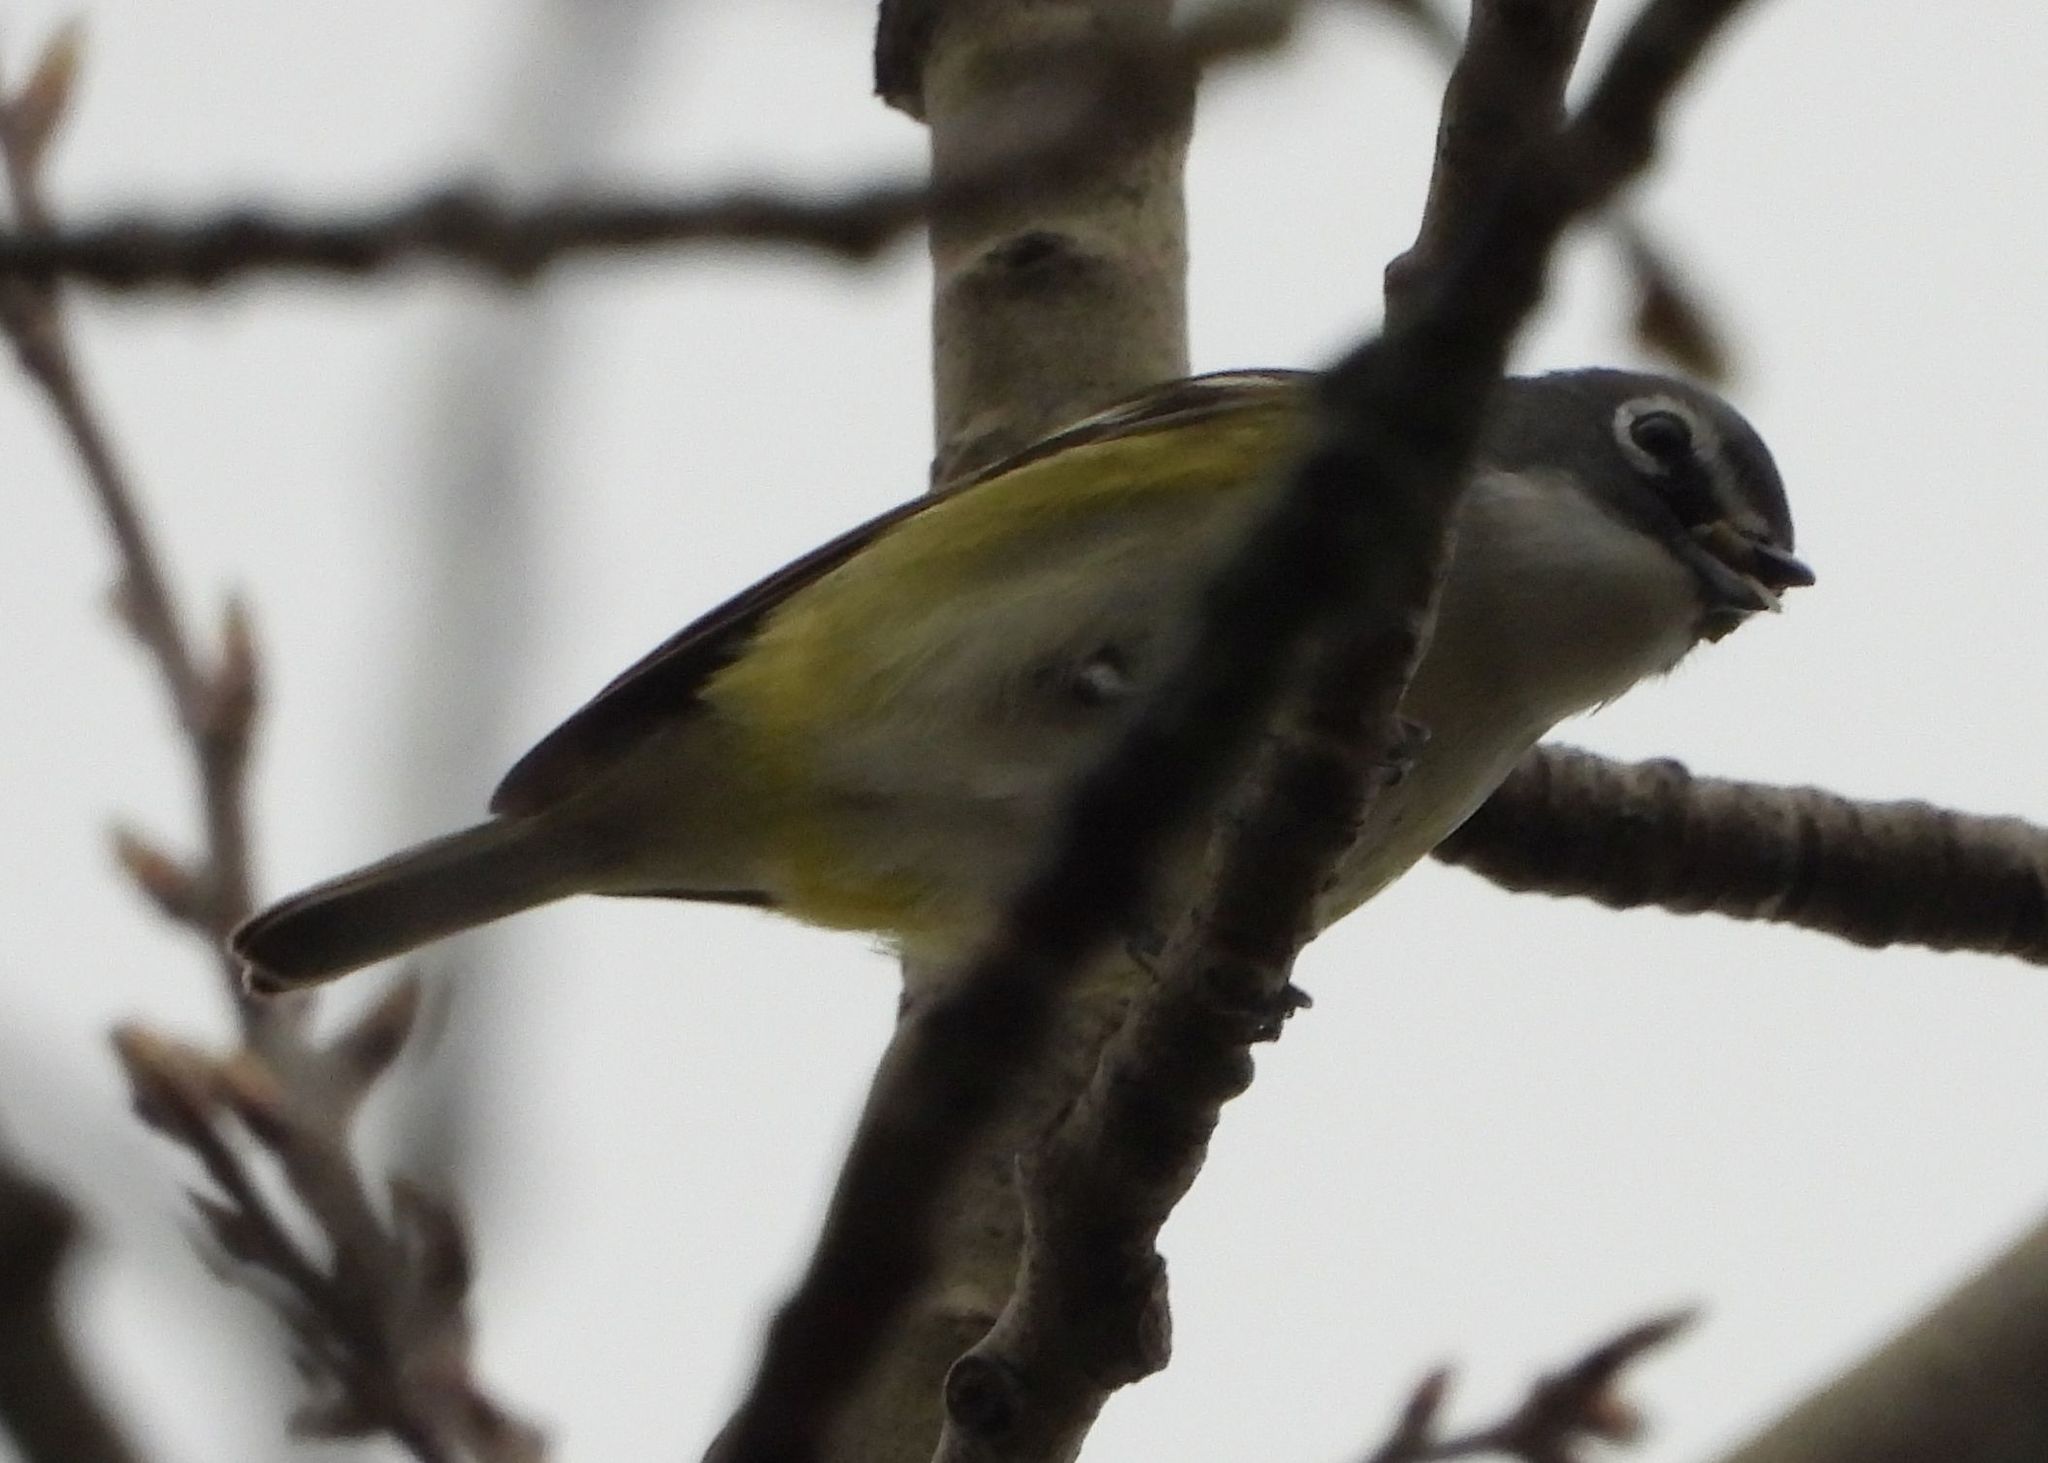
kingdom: Animalia
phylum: Chordata
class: Aves
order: Passeriformes
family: Vireonidae
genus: Vireo
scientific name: Vireo solitarius
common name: Blue-headed vireo
